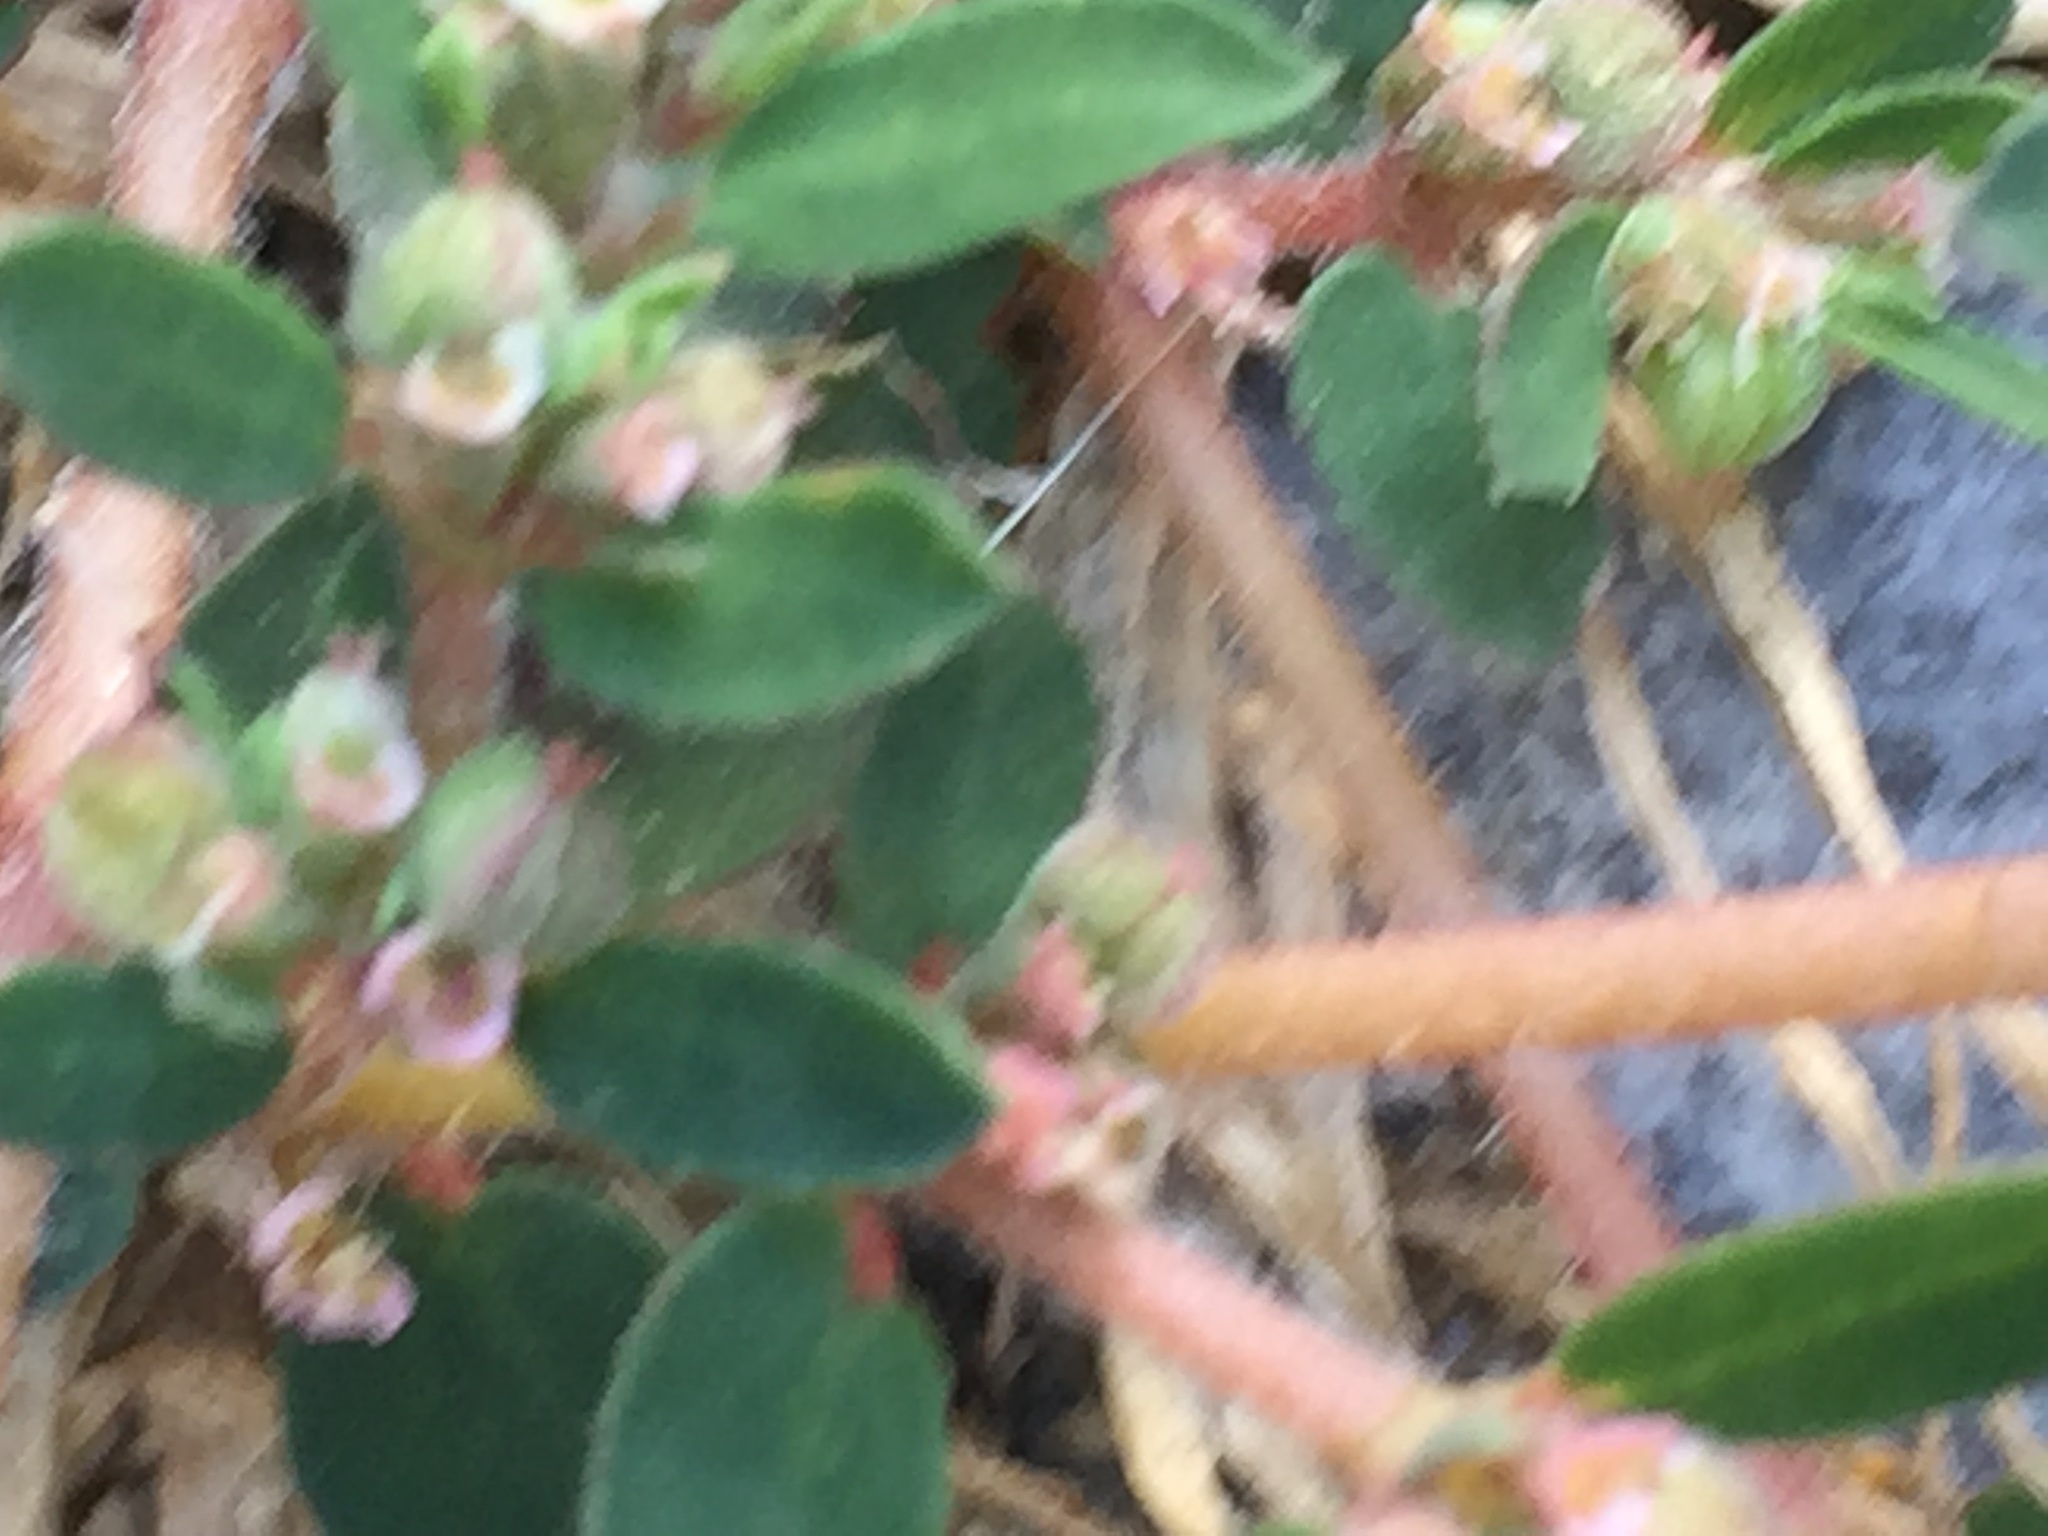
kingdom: Plantae
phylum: Tracheophyta
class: Magnoliopsida
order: Malpighiales
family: Euphorbiaceae
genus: Euphorbia
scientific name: Euphorbia maculata
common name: Spotted spurge
